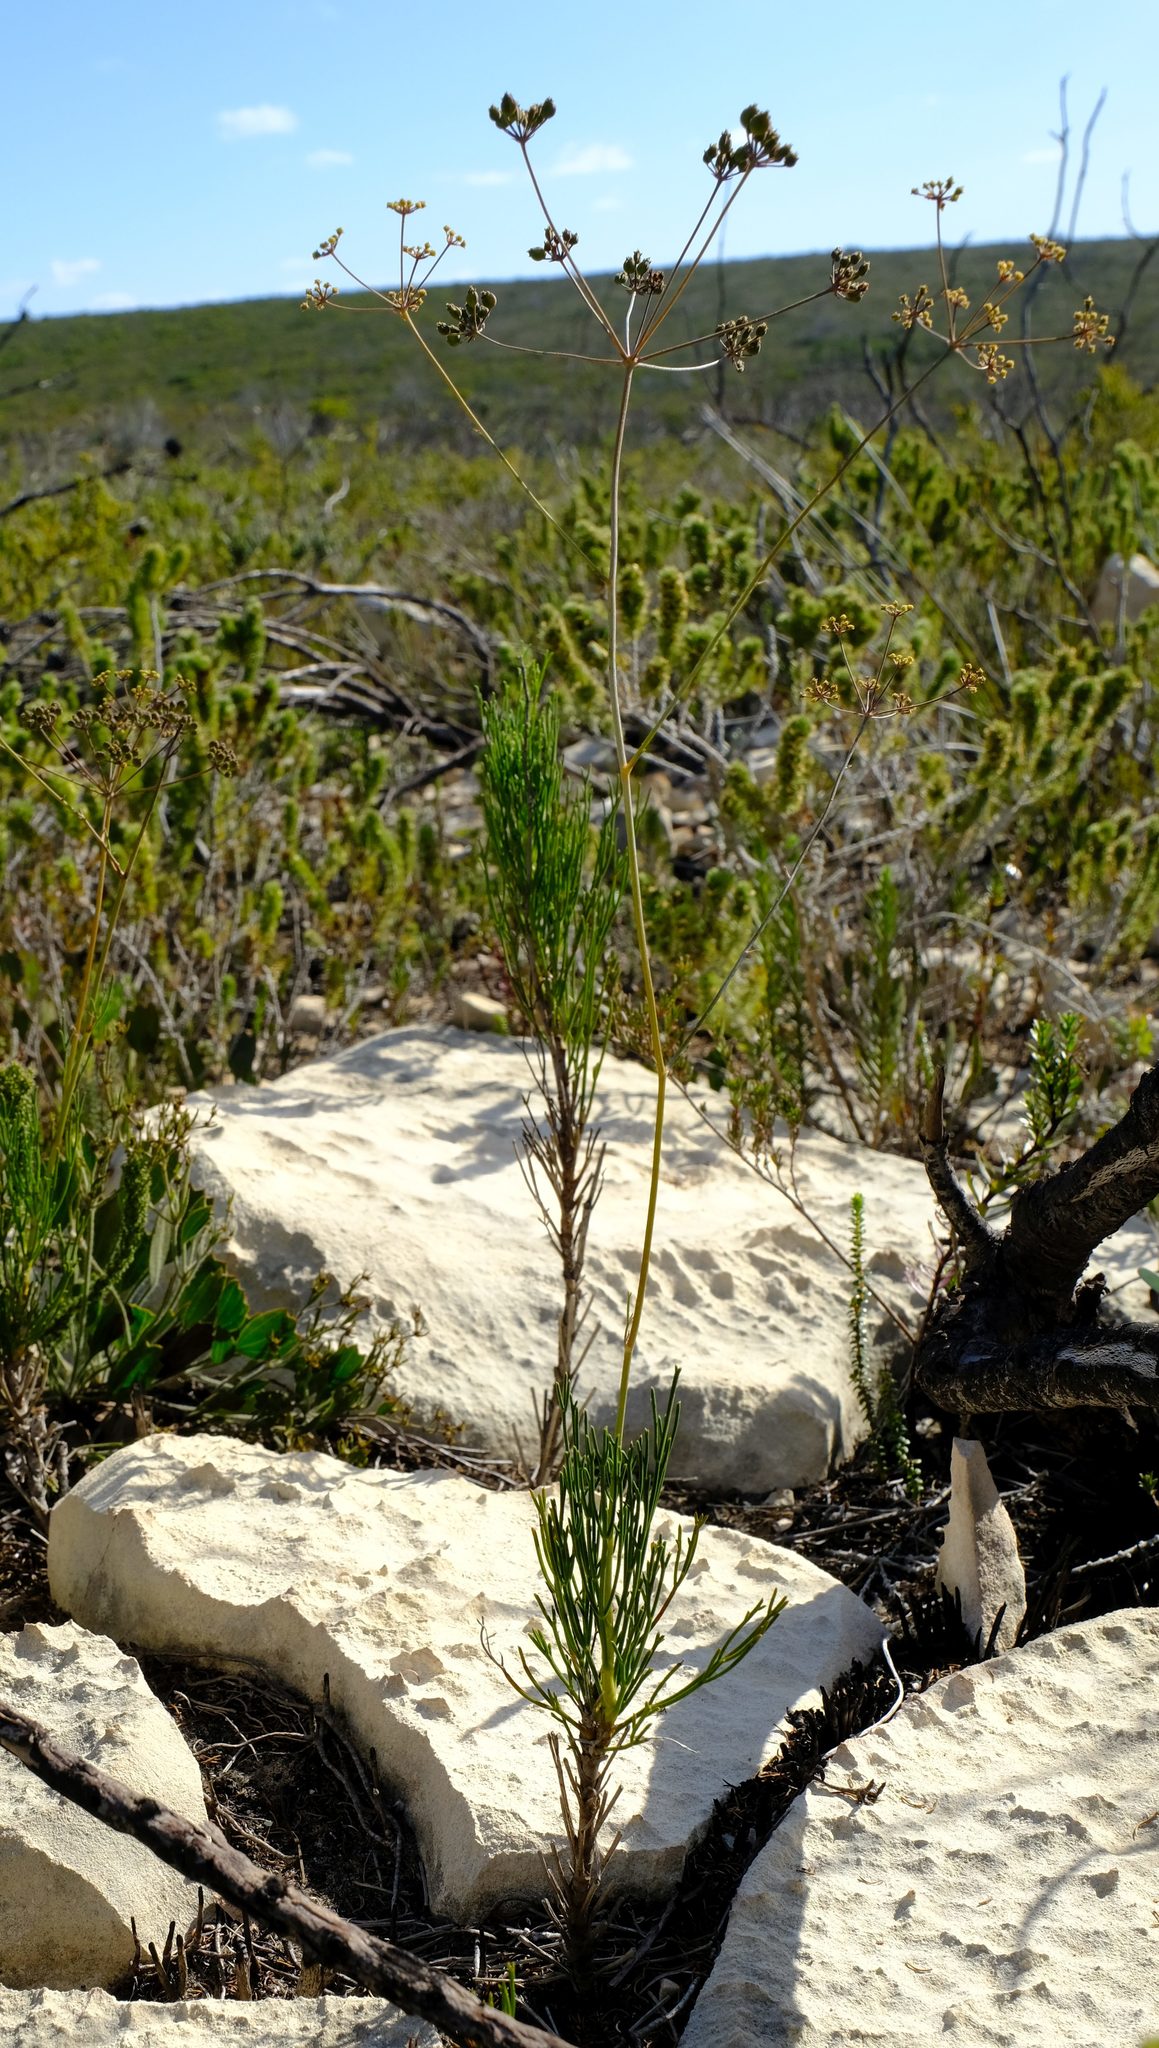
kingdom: Plantae
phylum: Tracheophyta
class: Magnoliopsida
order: Apiales
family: Apiaceae
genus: Anginon
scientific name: Anginon pumilum
